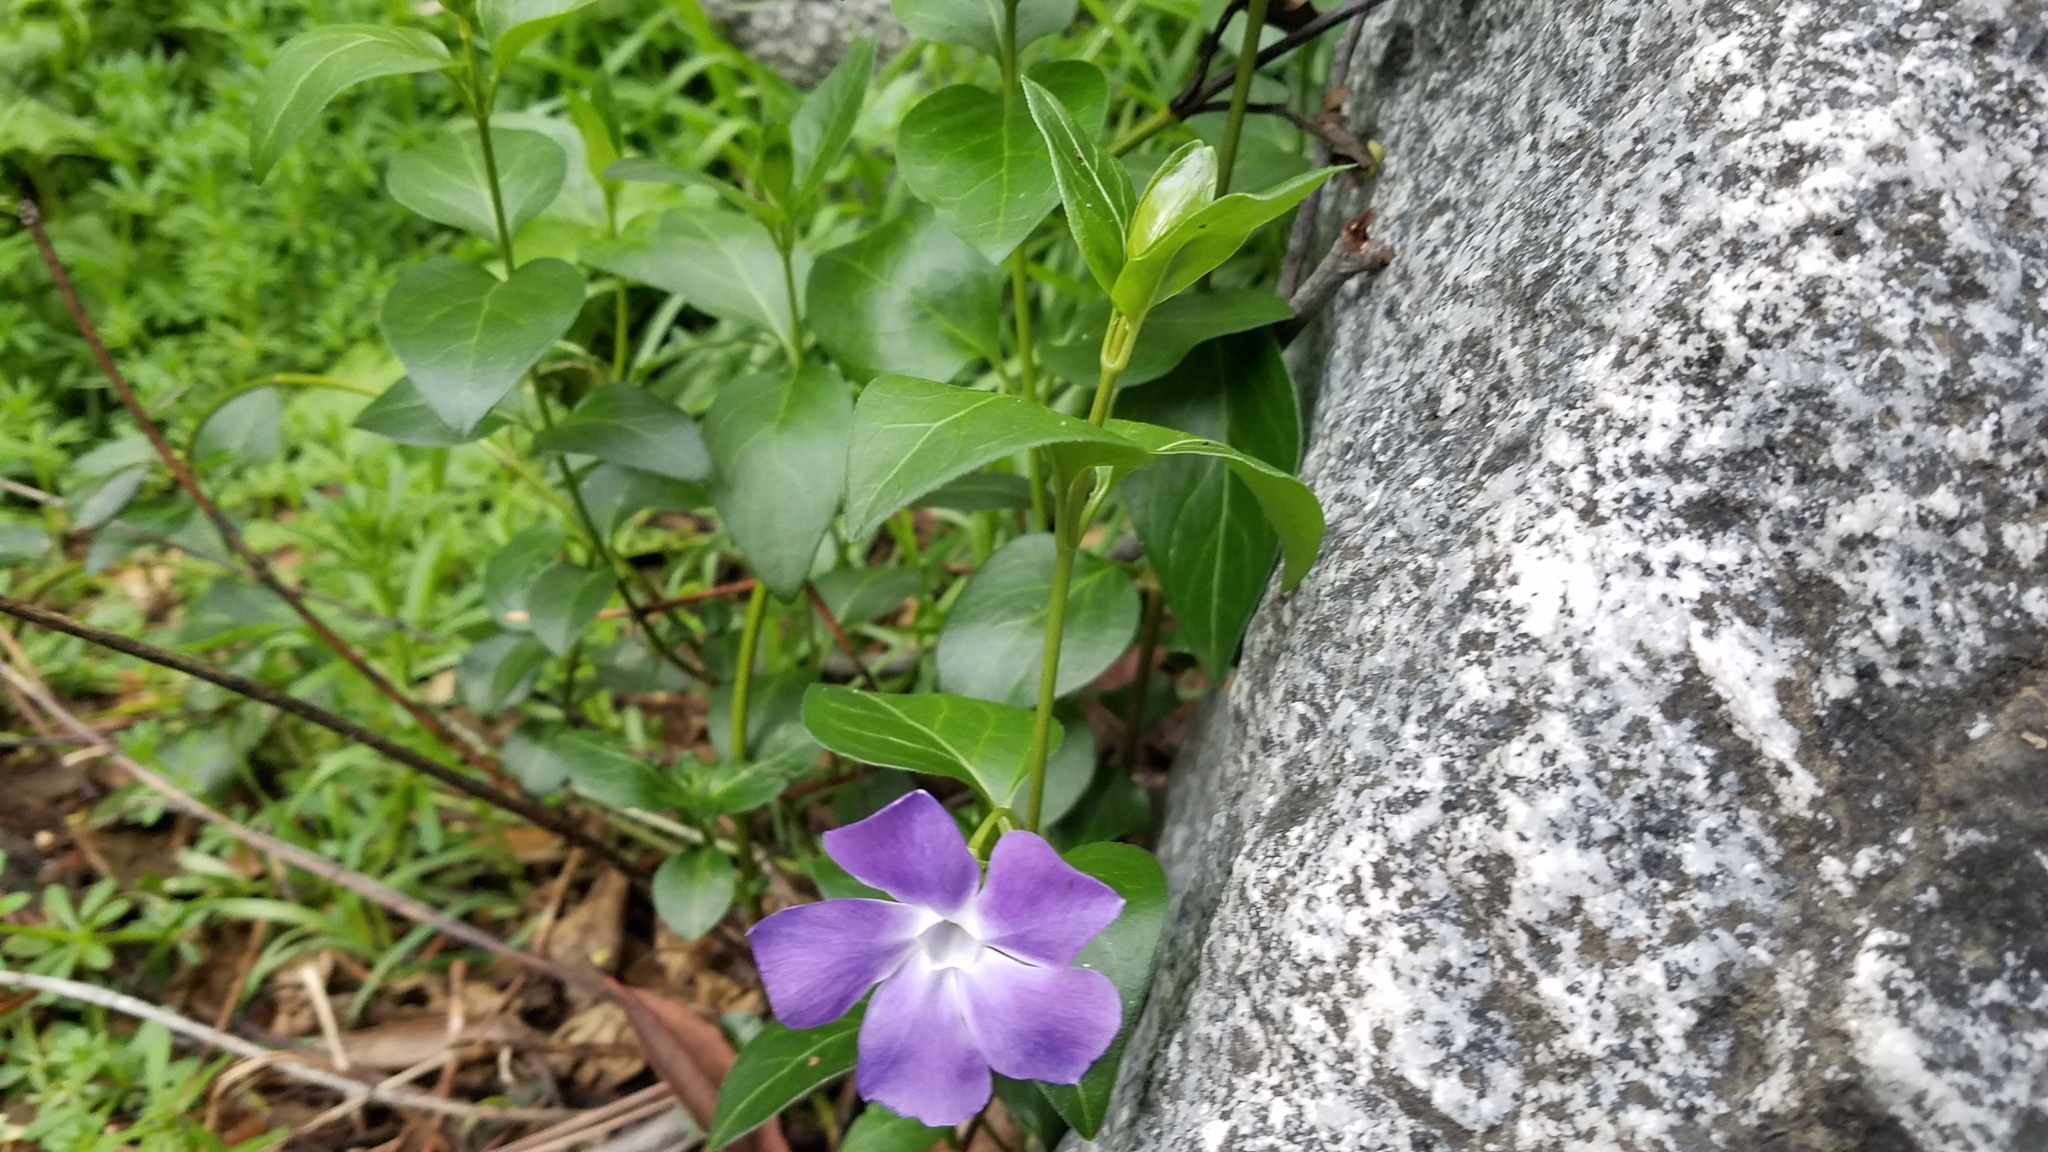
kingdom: Plantae
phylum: Tracheophyta
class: Magnoliopsida
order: Gentianales
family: Apocynaceae
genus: Vinca
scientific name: Vinca major
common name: Greater periwinkle
